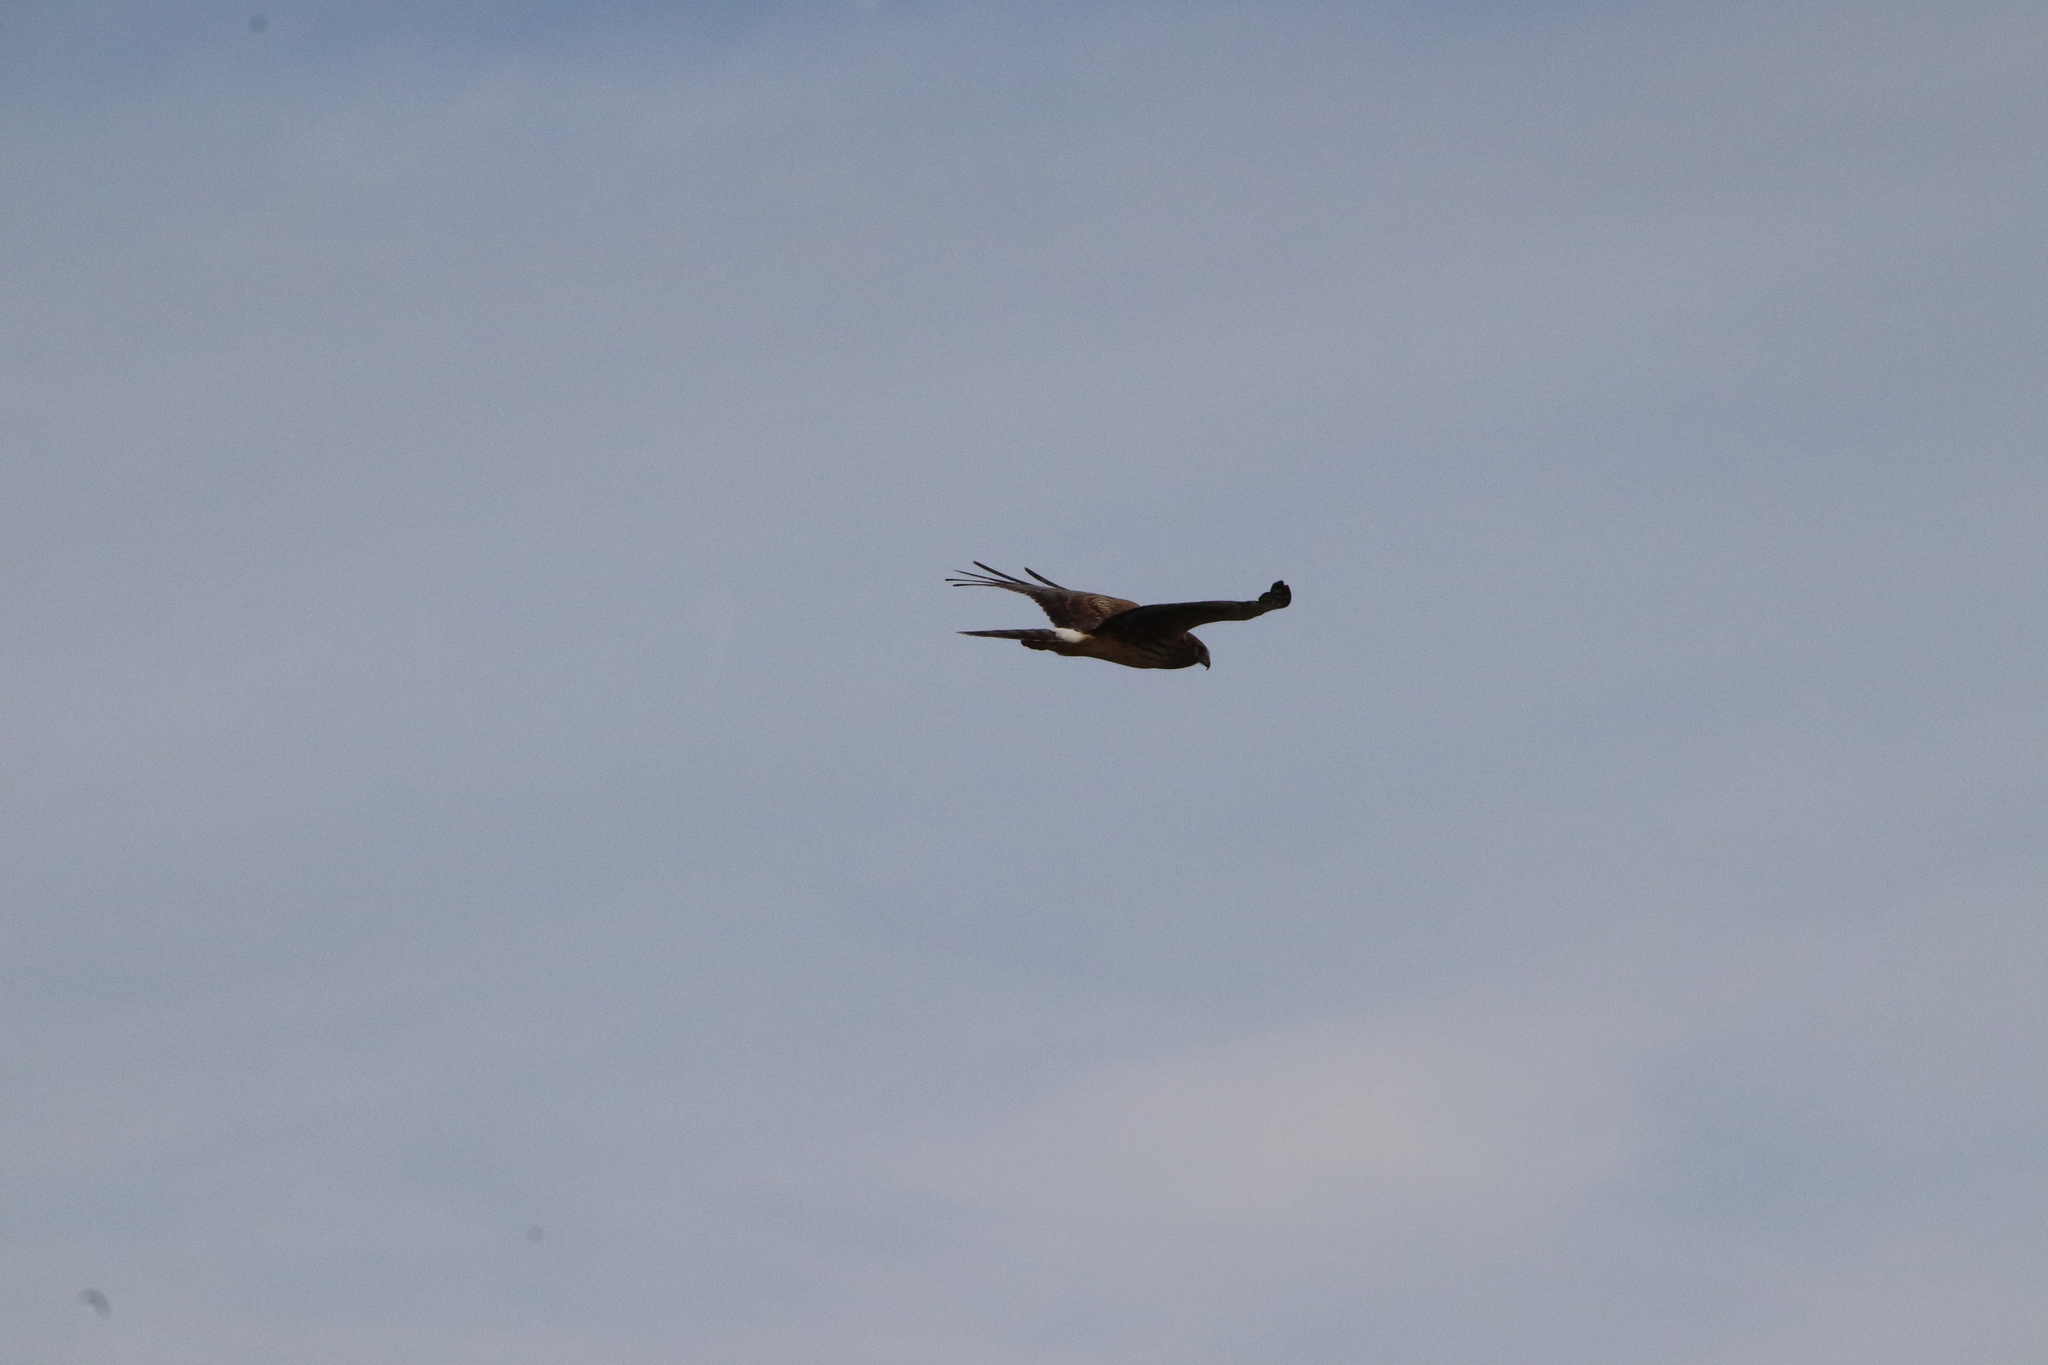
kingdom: Animalia
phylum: Chordata
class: Aves
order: Accipitriformes
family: Accipitridae
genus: Circus
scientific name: Circus cyaneus
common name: Hen harrier
